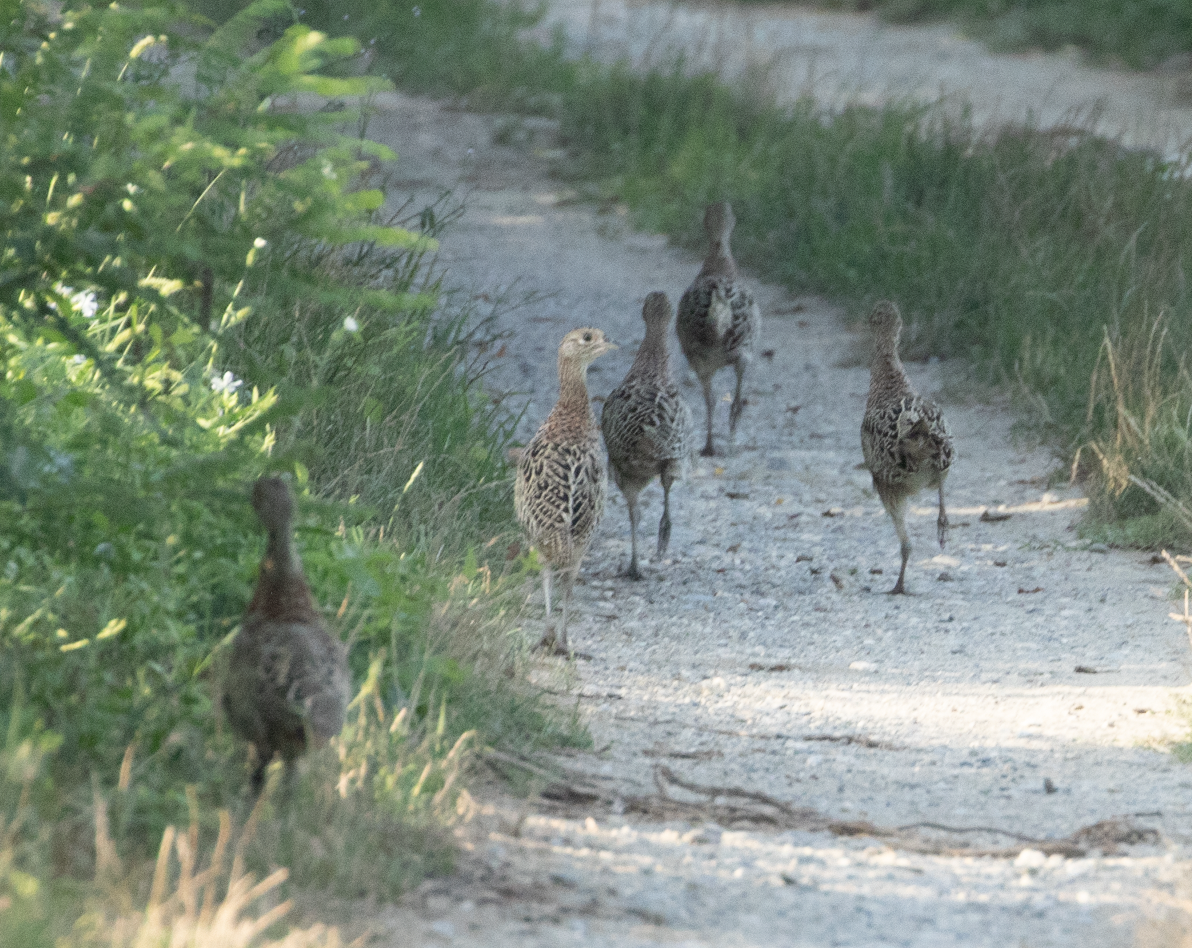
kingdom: Animalia
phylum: Chordata
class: Aves
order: Galliformes
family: Phasianidae
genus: Phasianus
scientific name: Phasianus colchicus
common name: Common pheasant
